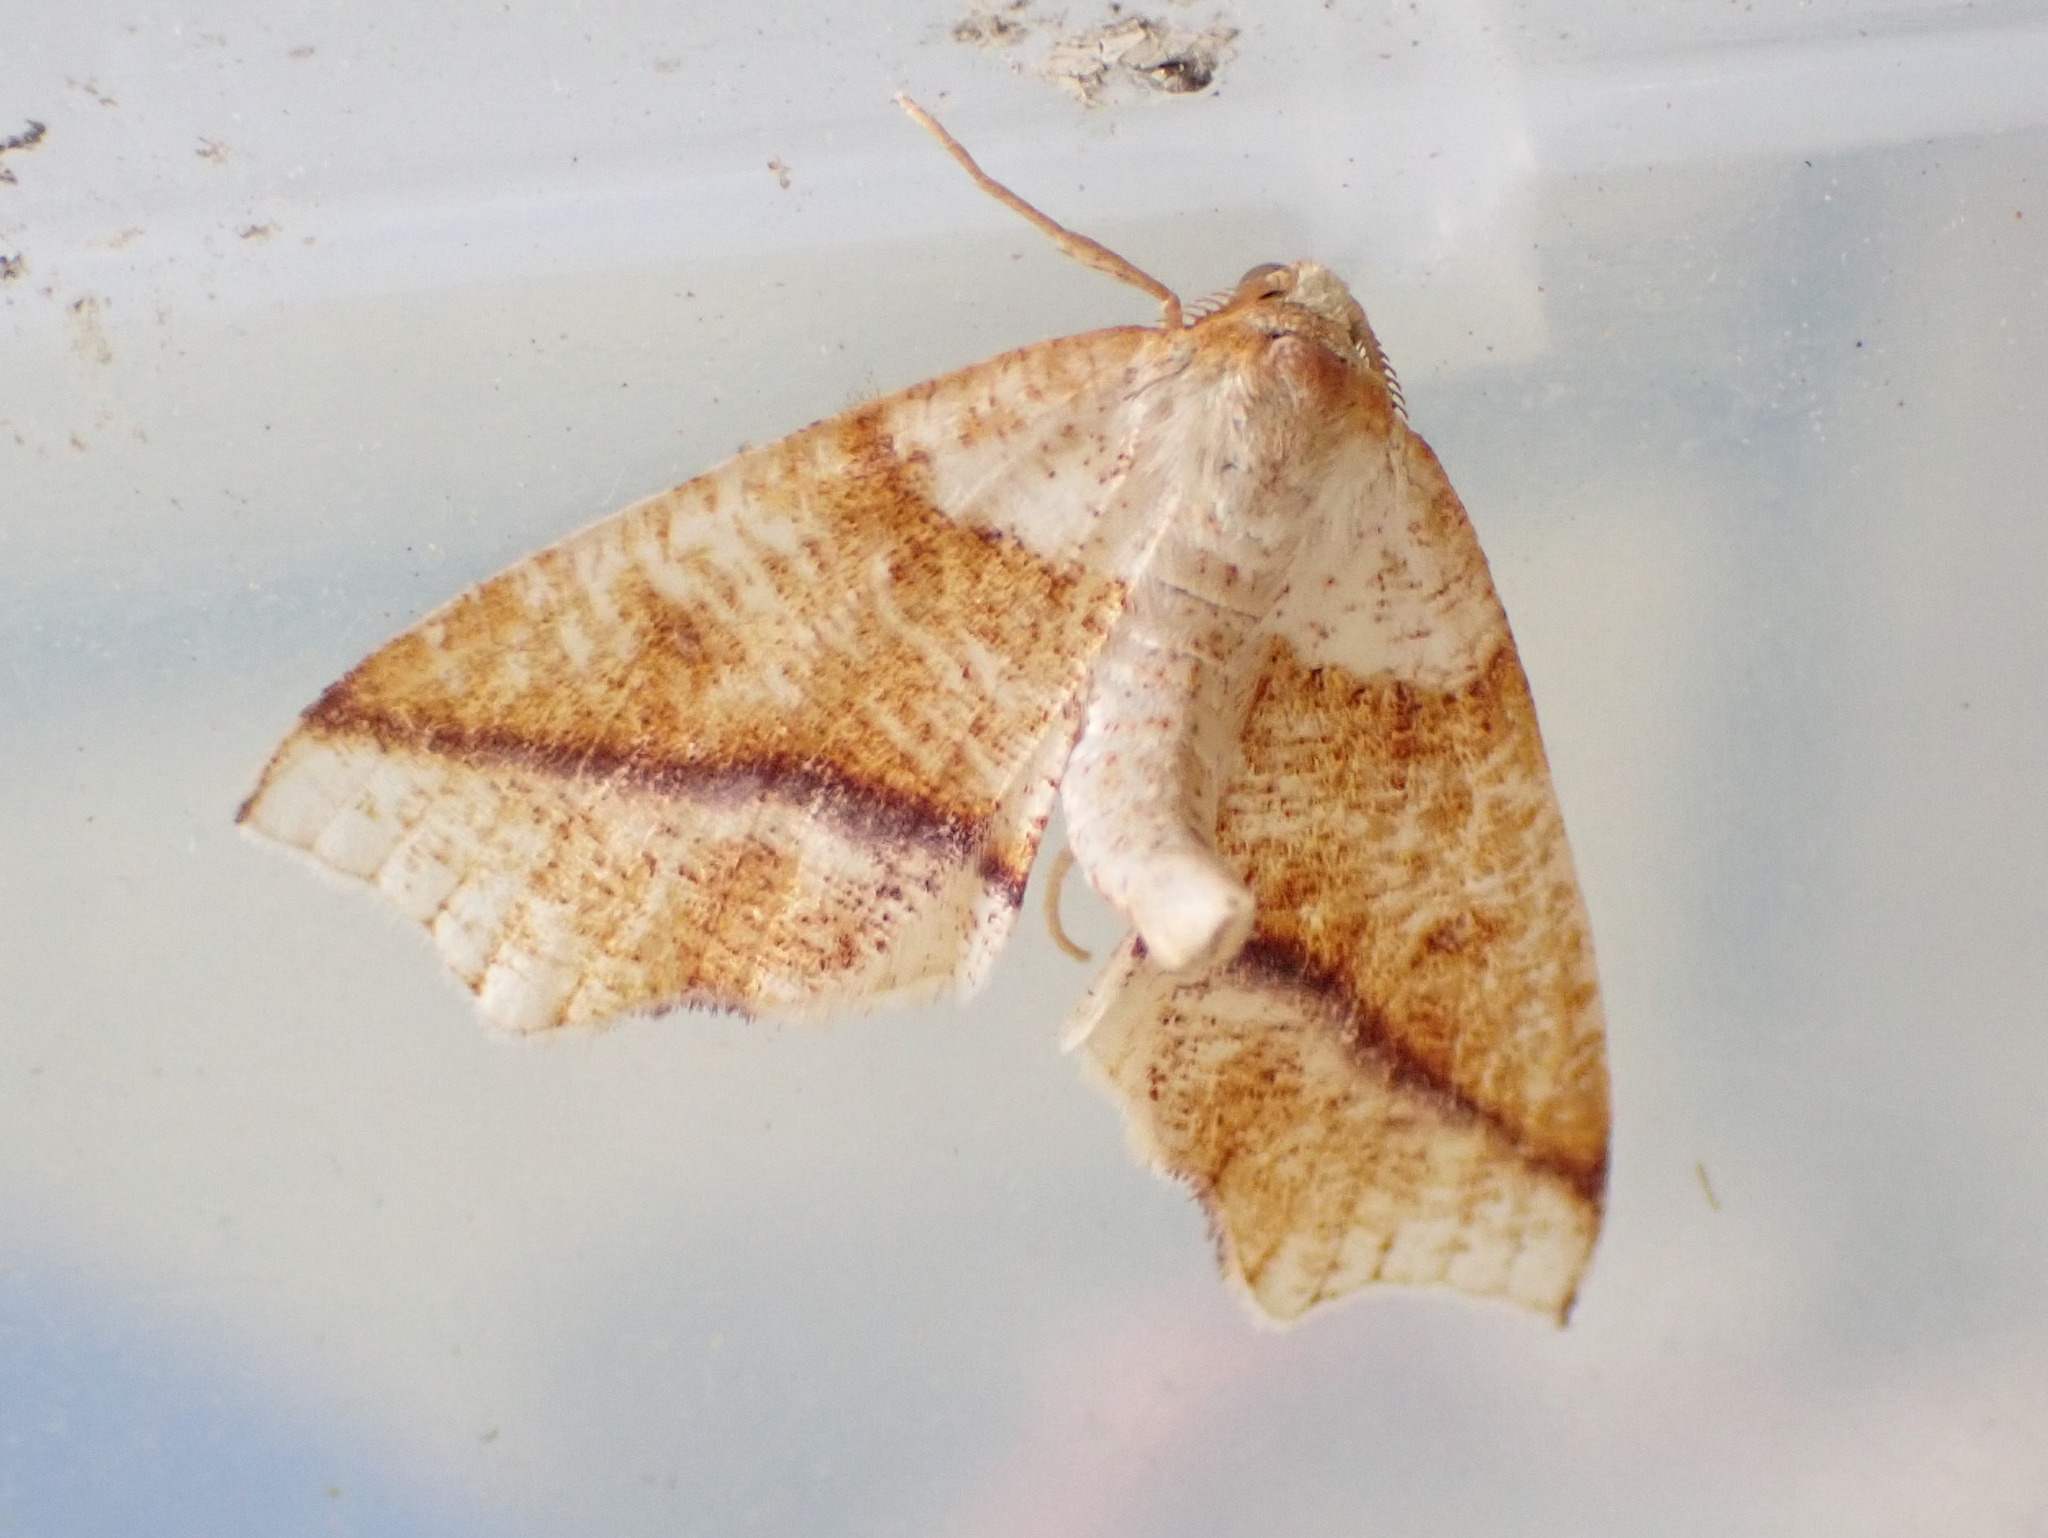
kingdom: Animalia
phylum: Arthropoda
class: Insecta
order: Lepidoptera
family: Geometridae
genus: Plagodis
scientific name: Plagodis alcoolaria
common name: Hollow-spotted plagodis
